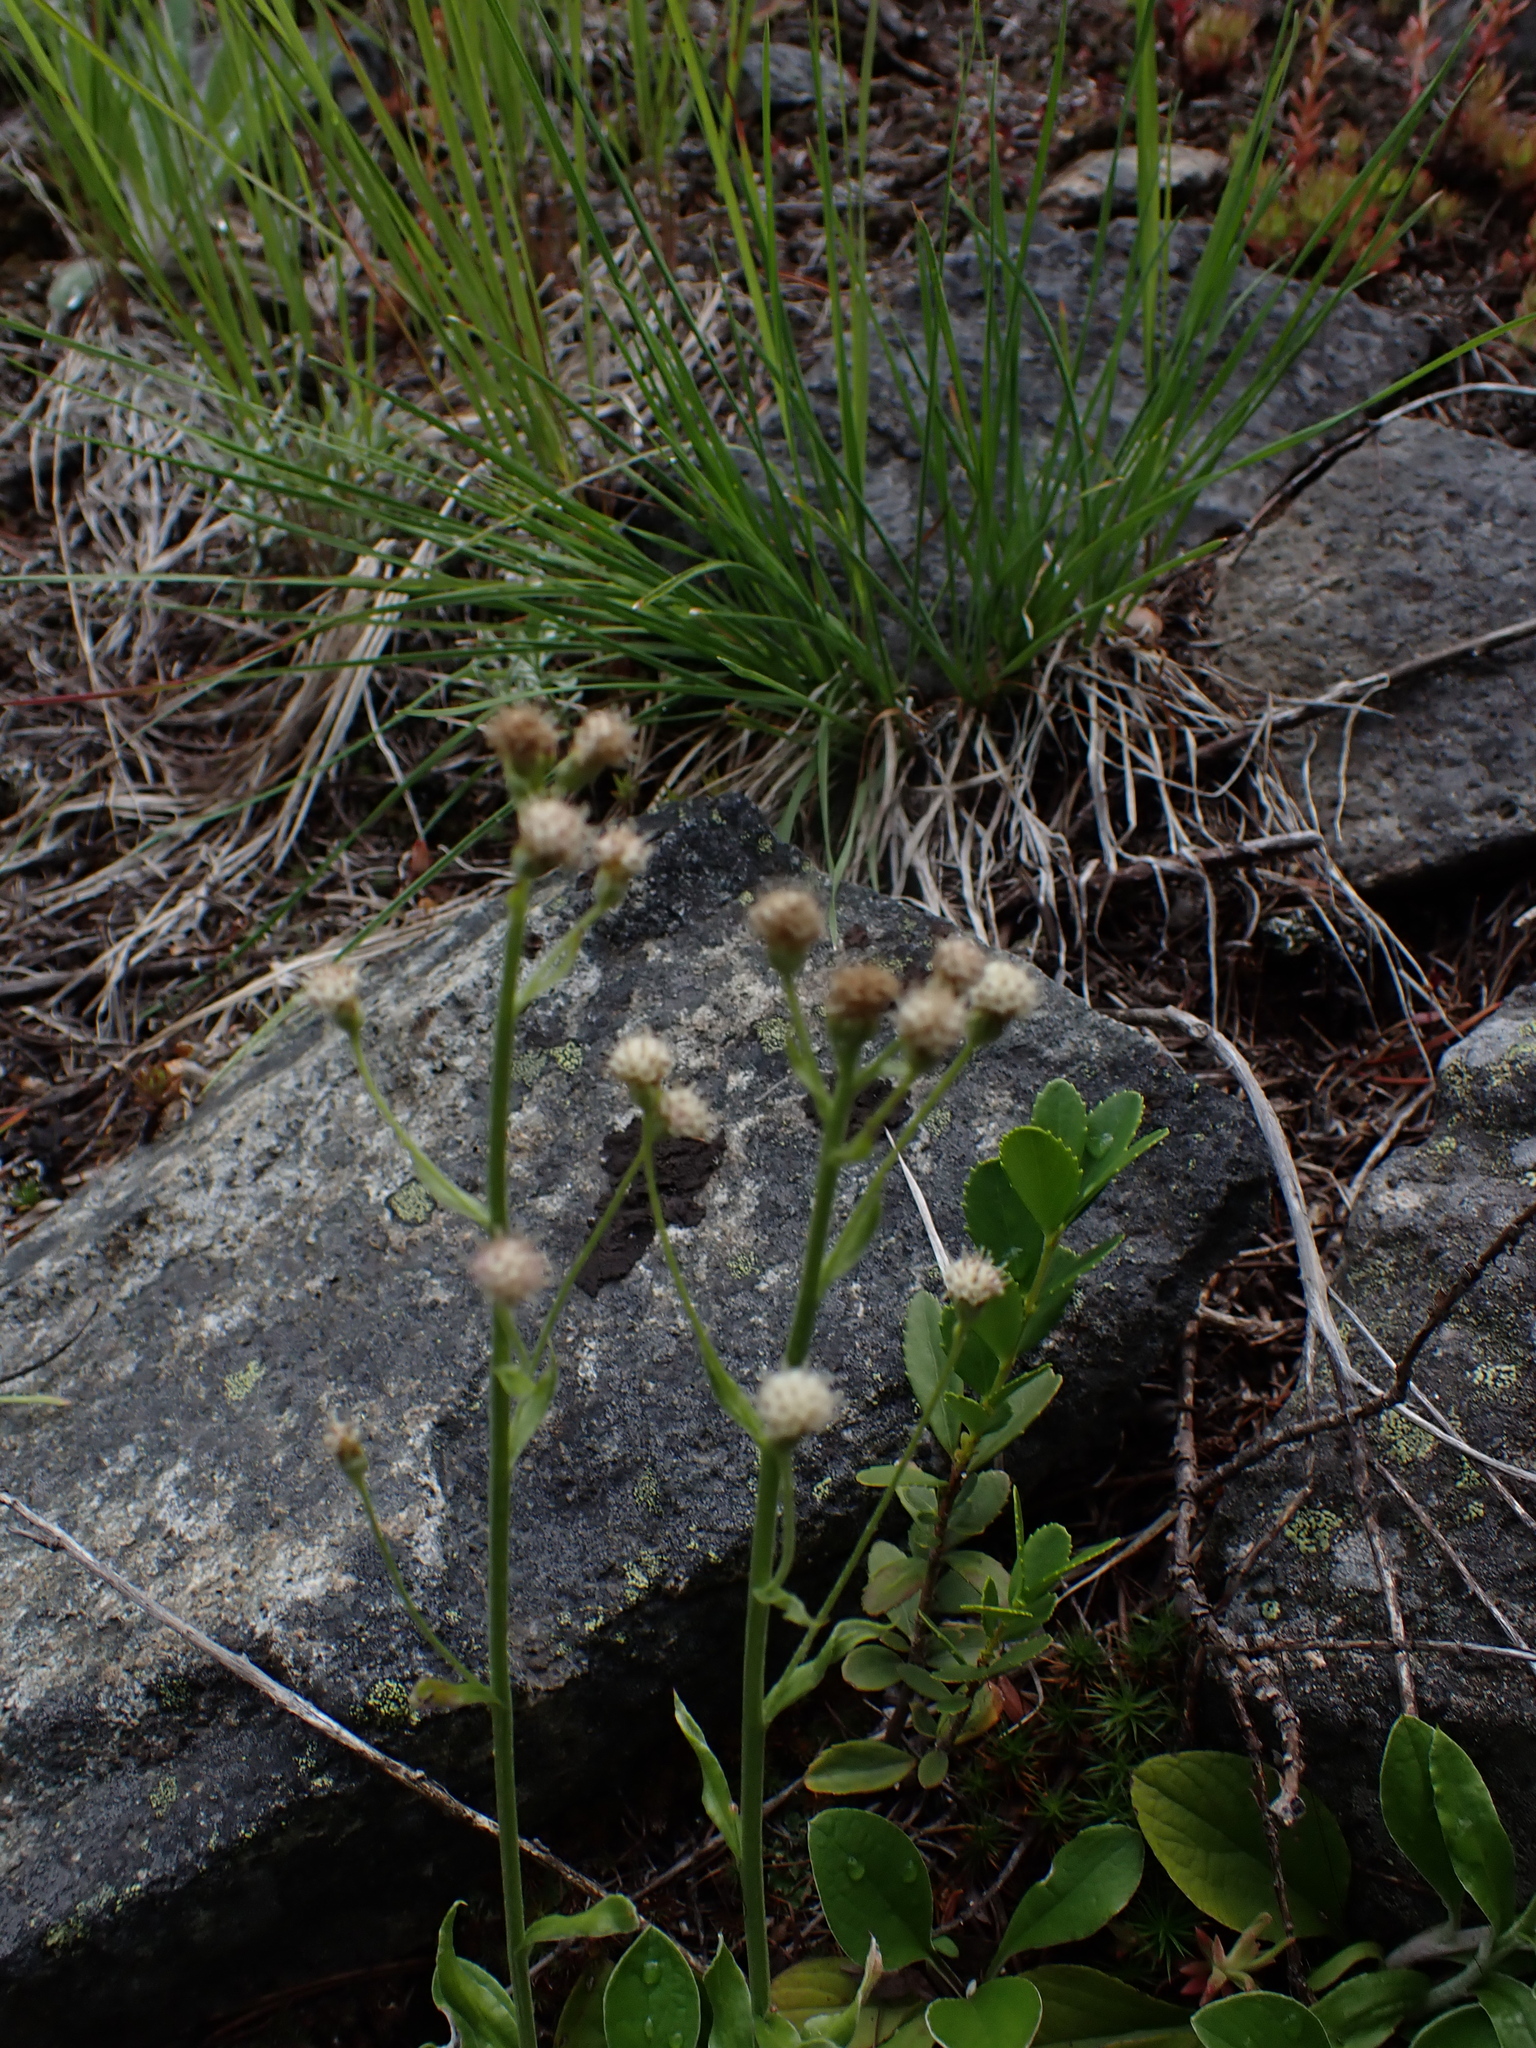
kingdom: Plantae
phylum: Tracheophyta
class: Magnoliopsida
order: Asterales
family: Asteraceae
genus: Antennaria
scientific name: Antennaria racemosa
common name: Racemose pussytoes
